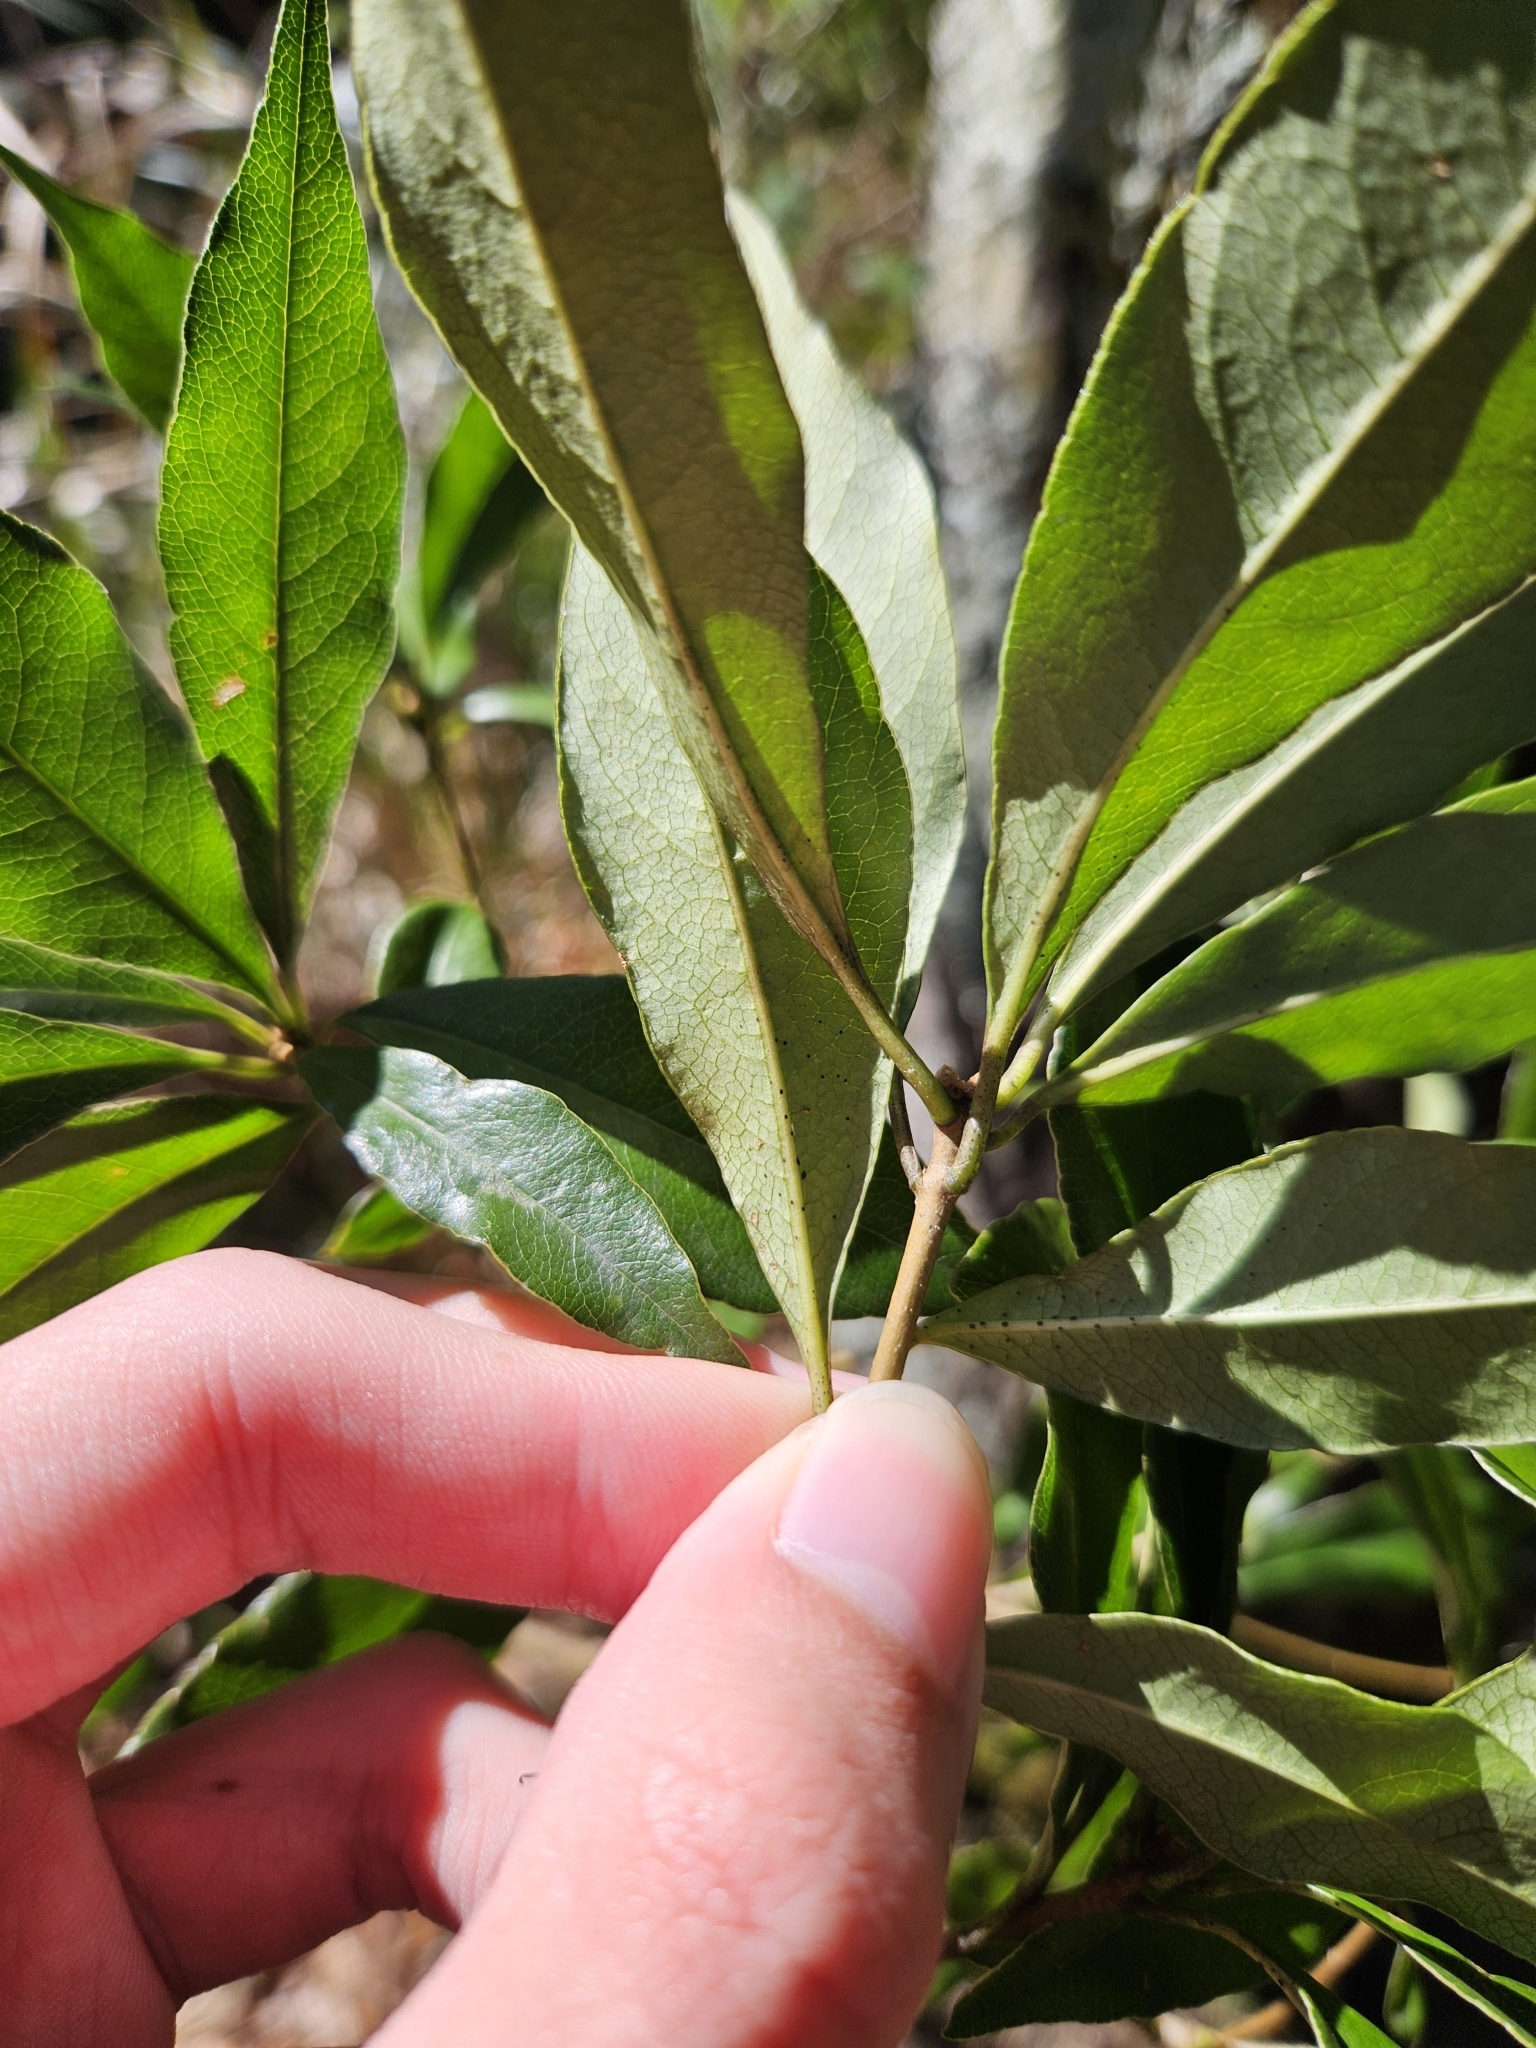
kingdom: Plantae
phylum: Tracheophyta
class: Magnoliopsida
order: Apiales
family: Pittosporaceae
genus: Pittosporum
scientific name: Pittosporum illicioides
